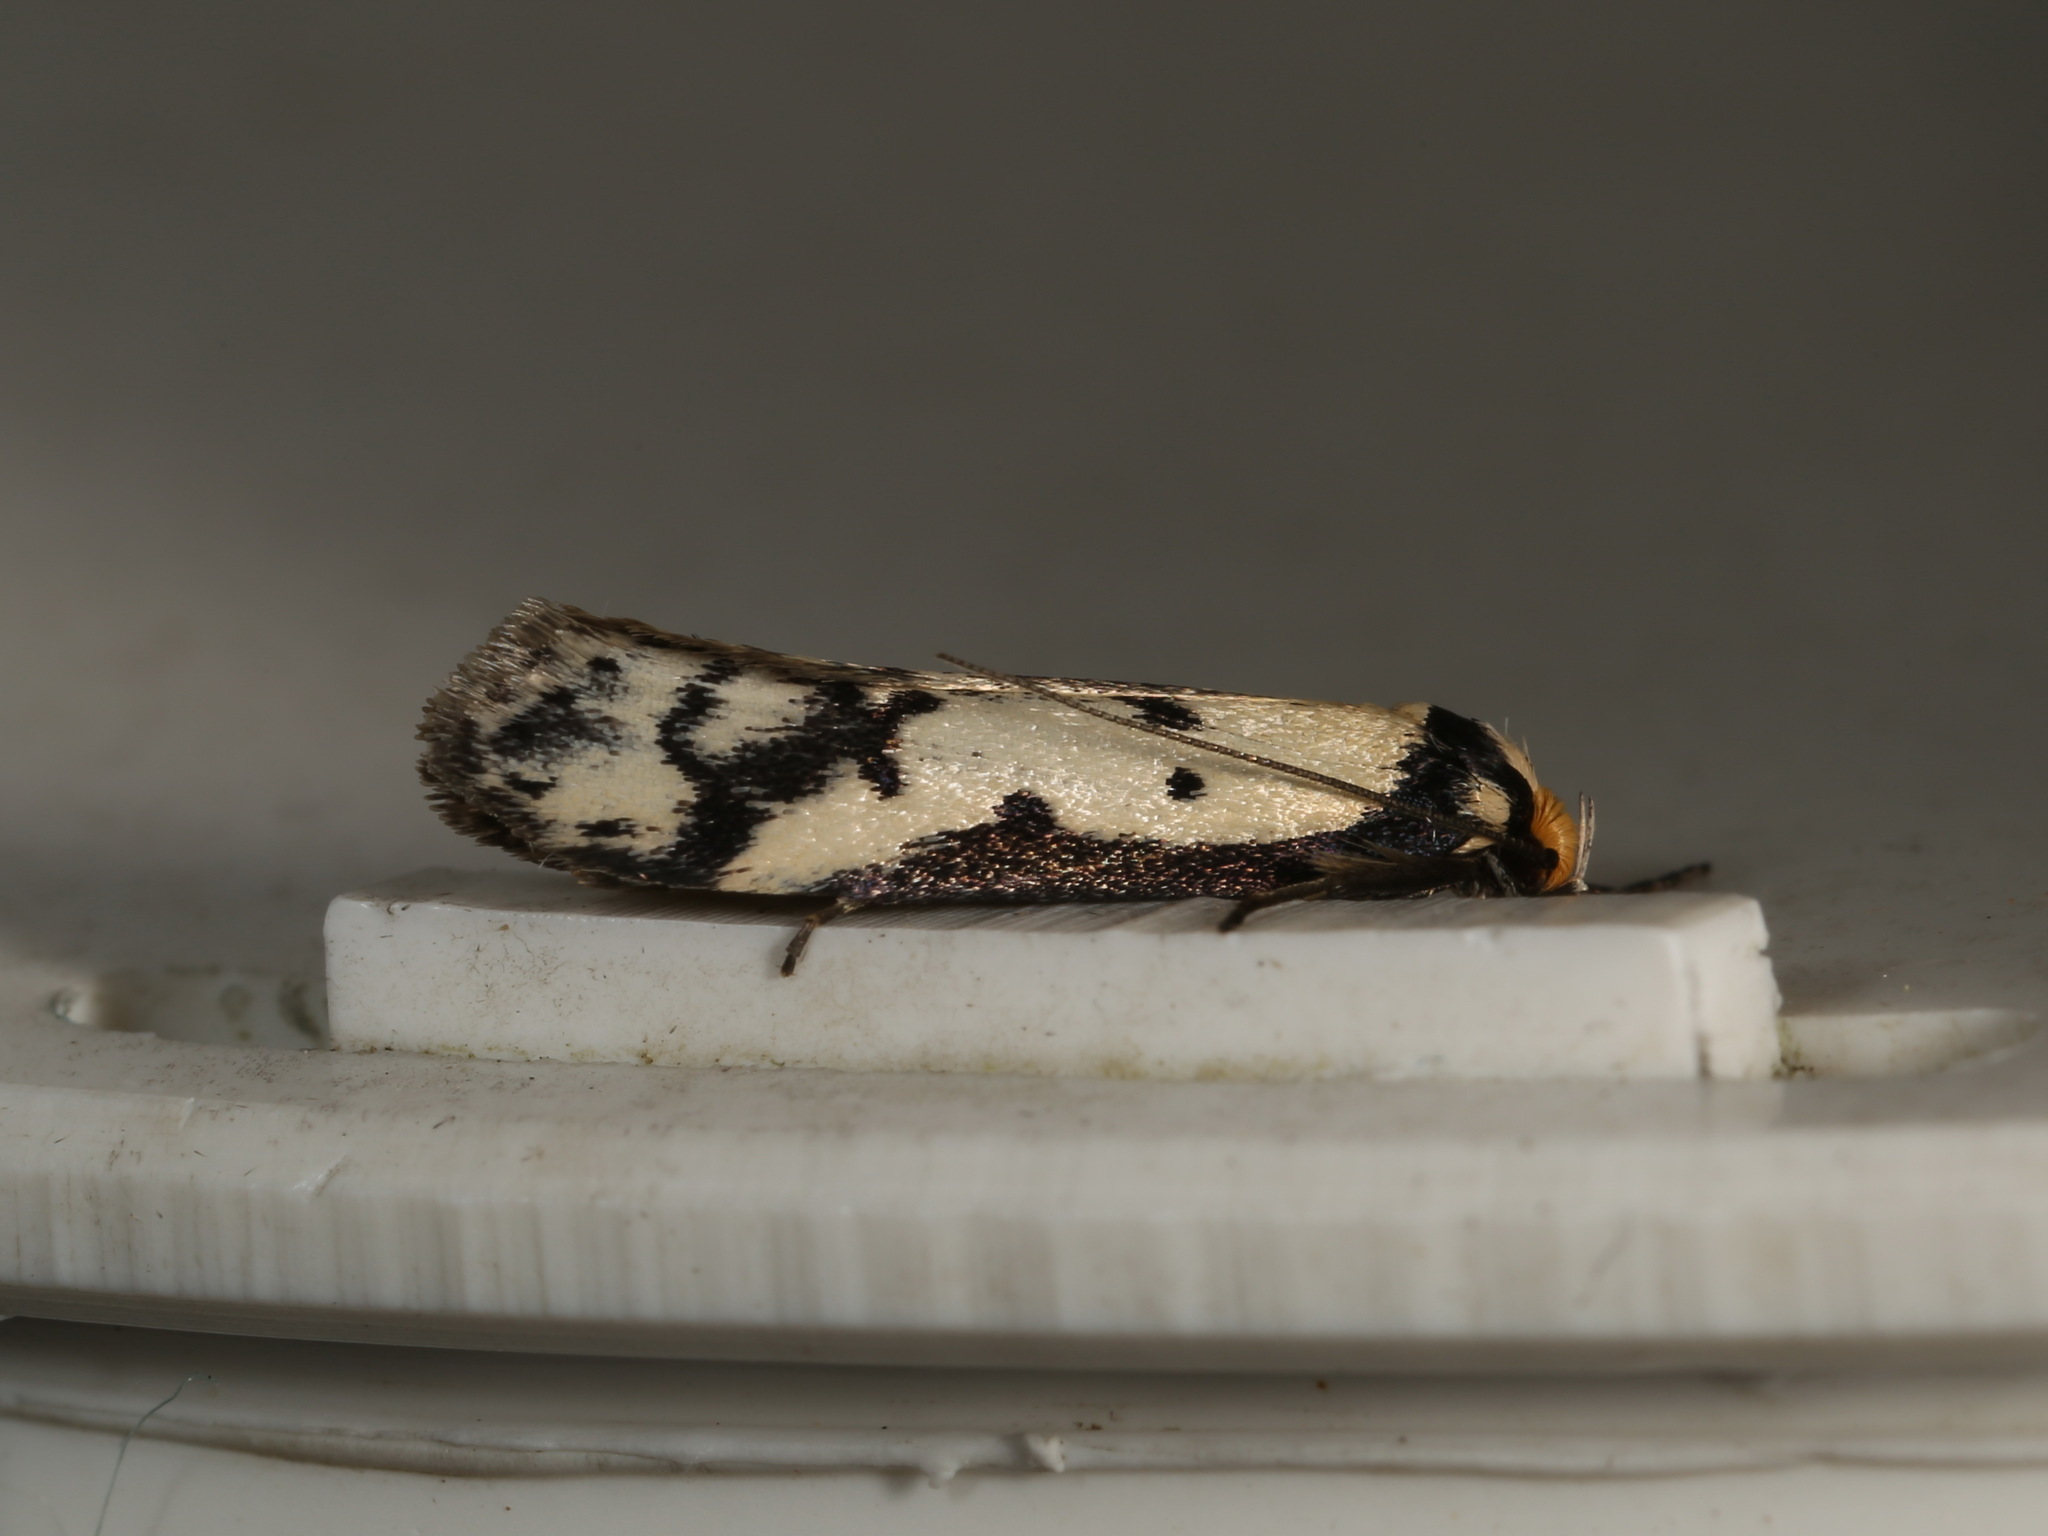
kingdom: Animalia
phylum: Arthropoda
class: Insecta
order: Lepidoptera
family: Oecophoridae
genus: Philobota
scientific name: Philobota lysizona
